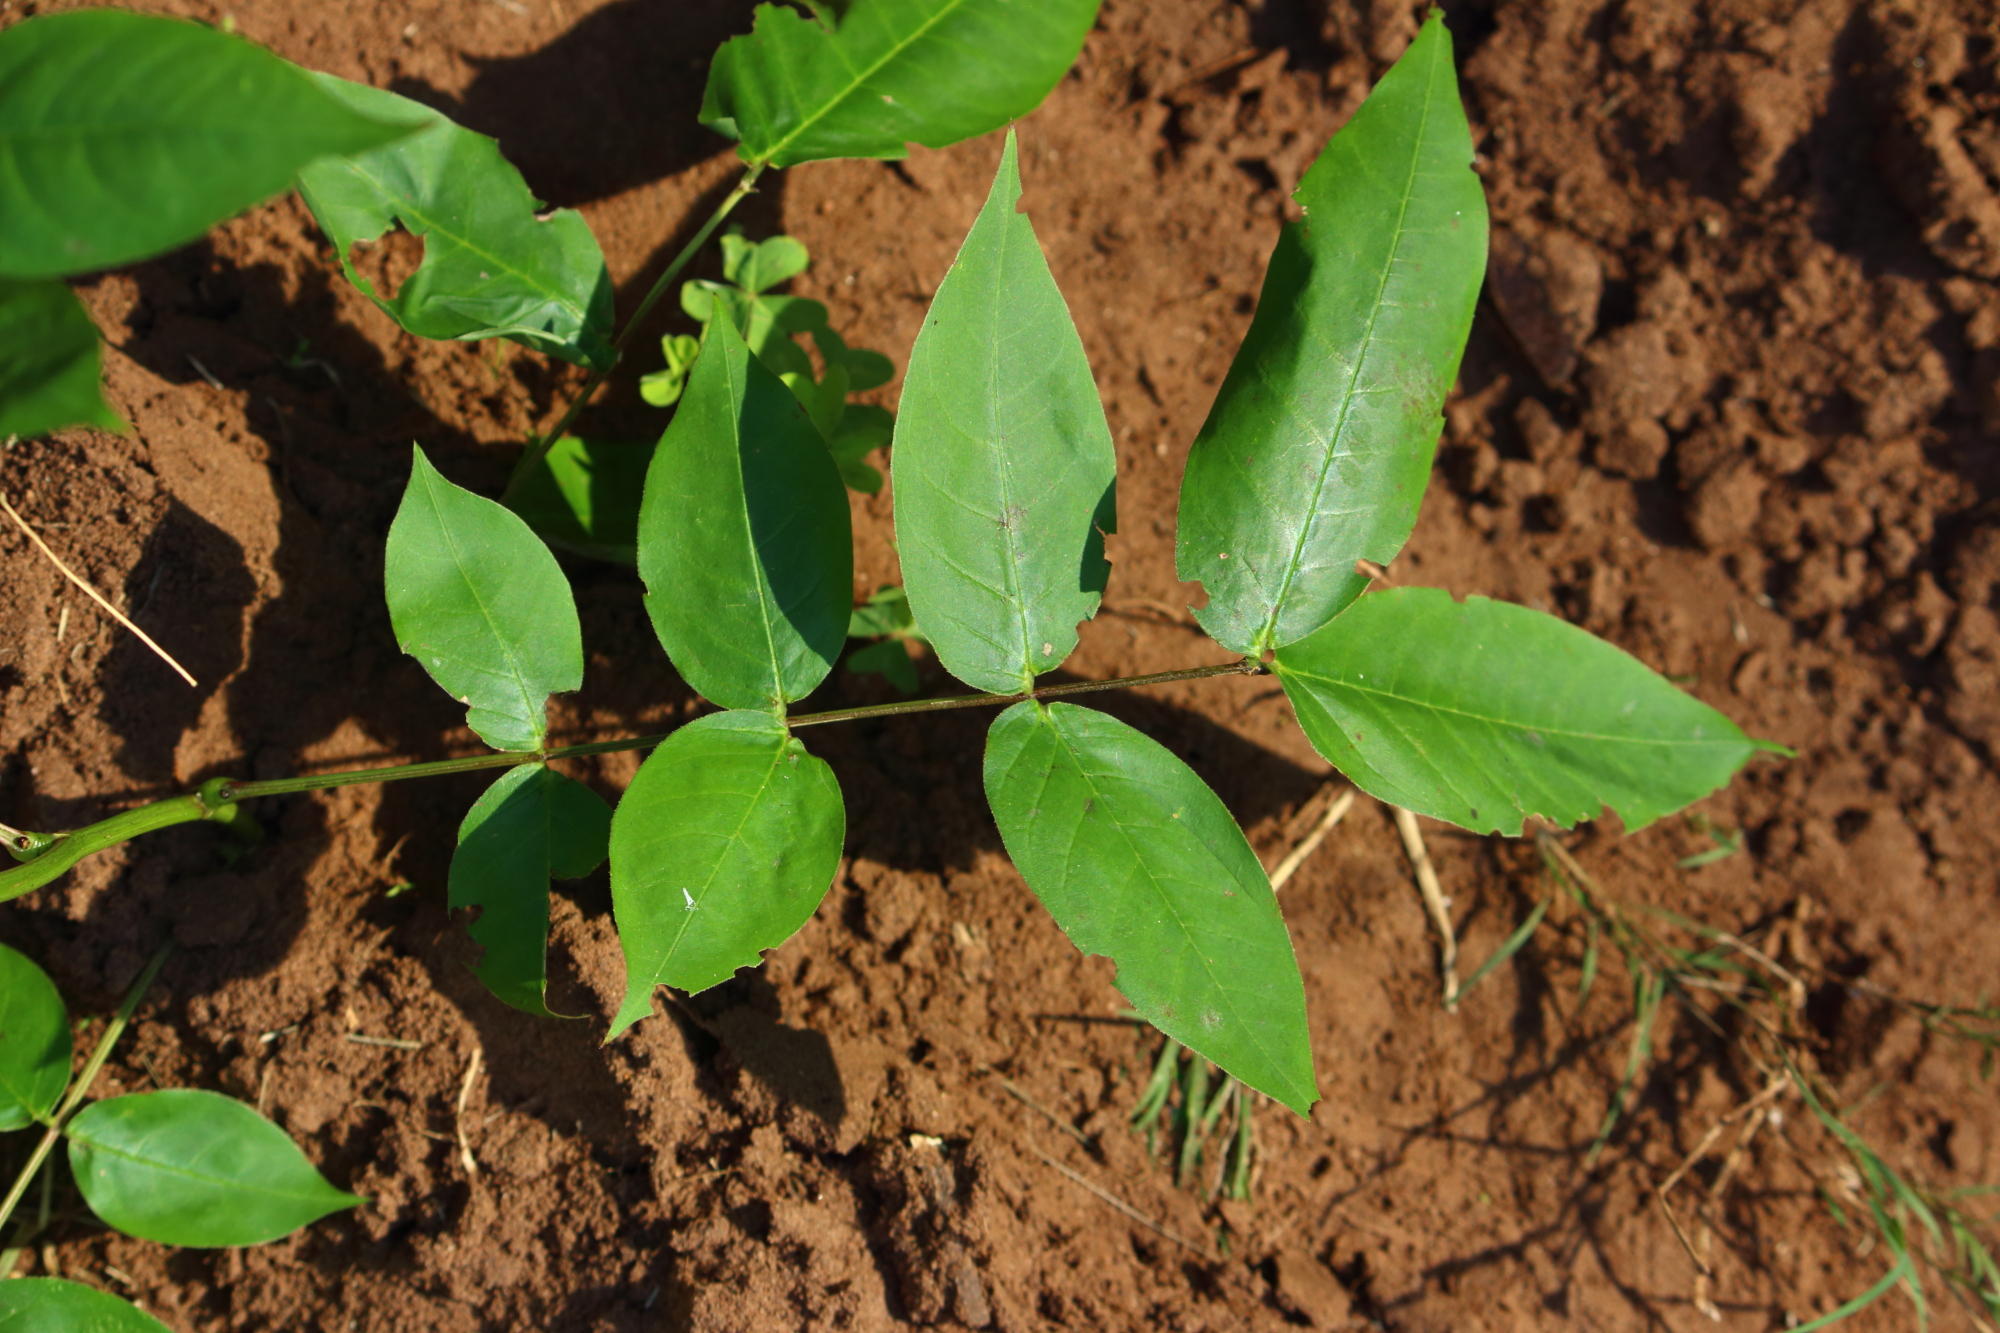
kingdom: Plantae
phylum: Tracheophyta
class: Magnoliopsida
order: Fabales
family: Fabaceae
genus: Senna
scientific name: Senna occidentalis
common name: Septicweed
